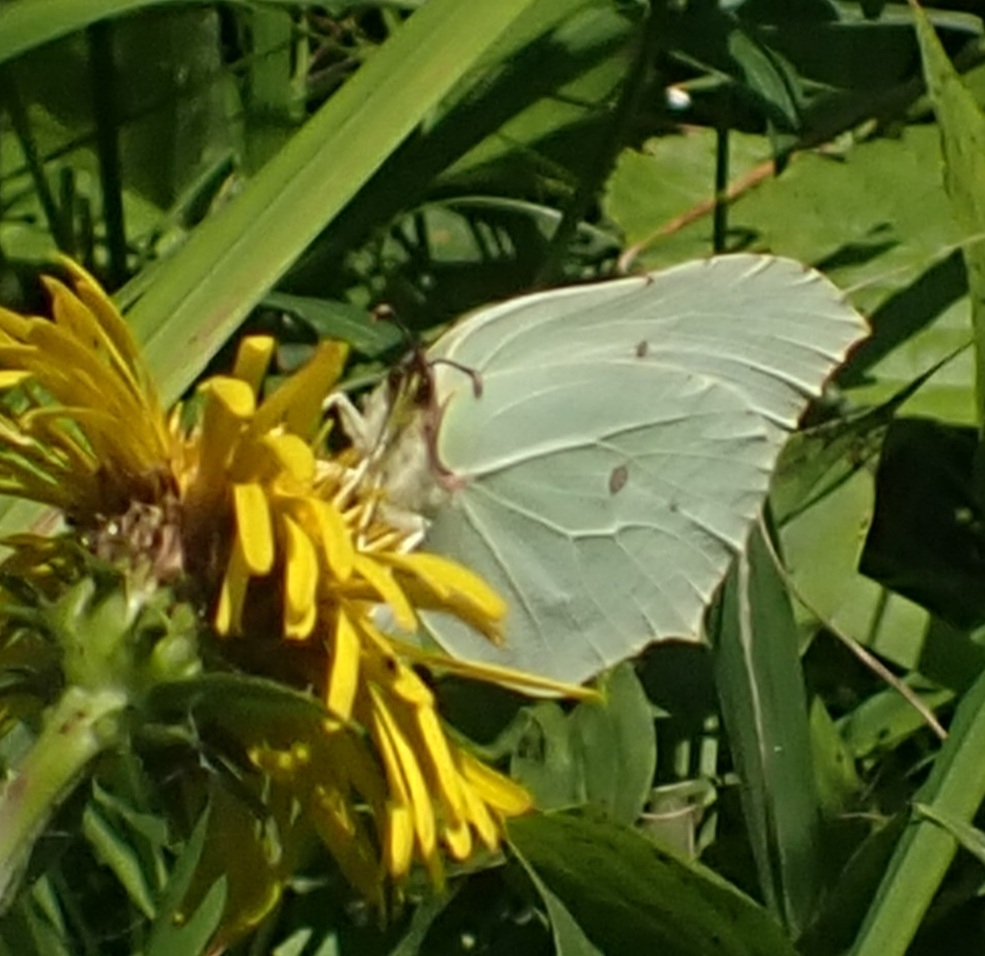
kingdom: Animalia
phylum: Arthropoda
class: Insecta
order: Lepidoptera
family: Pieridae
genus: Gonepteryx
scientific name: Gonepteryx rhamni
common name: Brimstone
